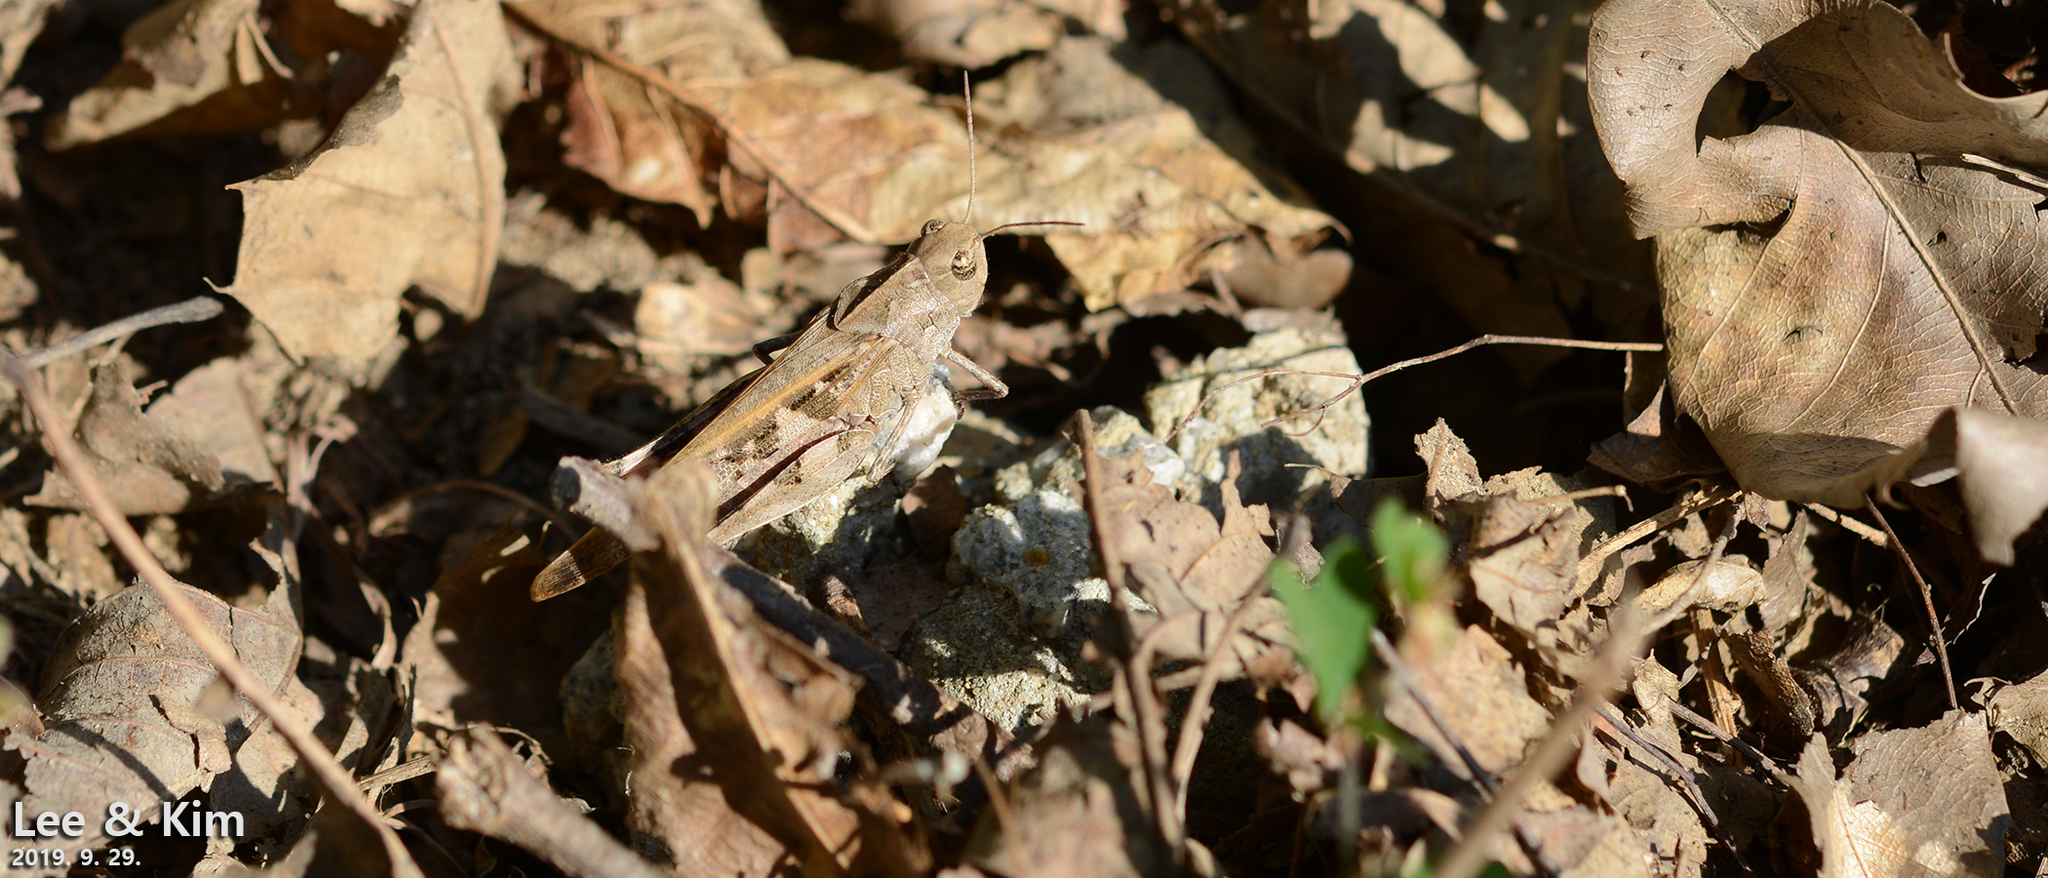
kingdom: Animalia
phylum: Arthropoda
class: Insecta
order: Orthoptera
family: Acrididae
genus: Oedaleus
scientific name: Oedaleus infernalis
